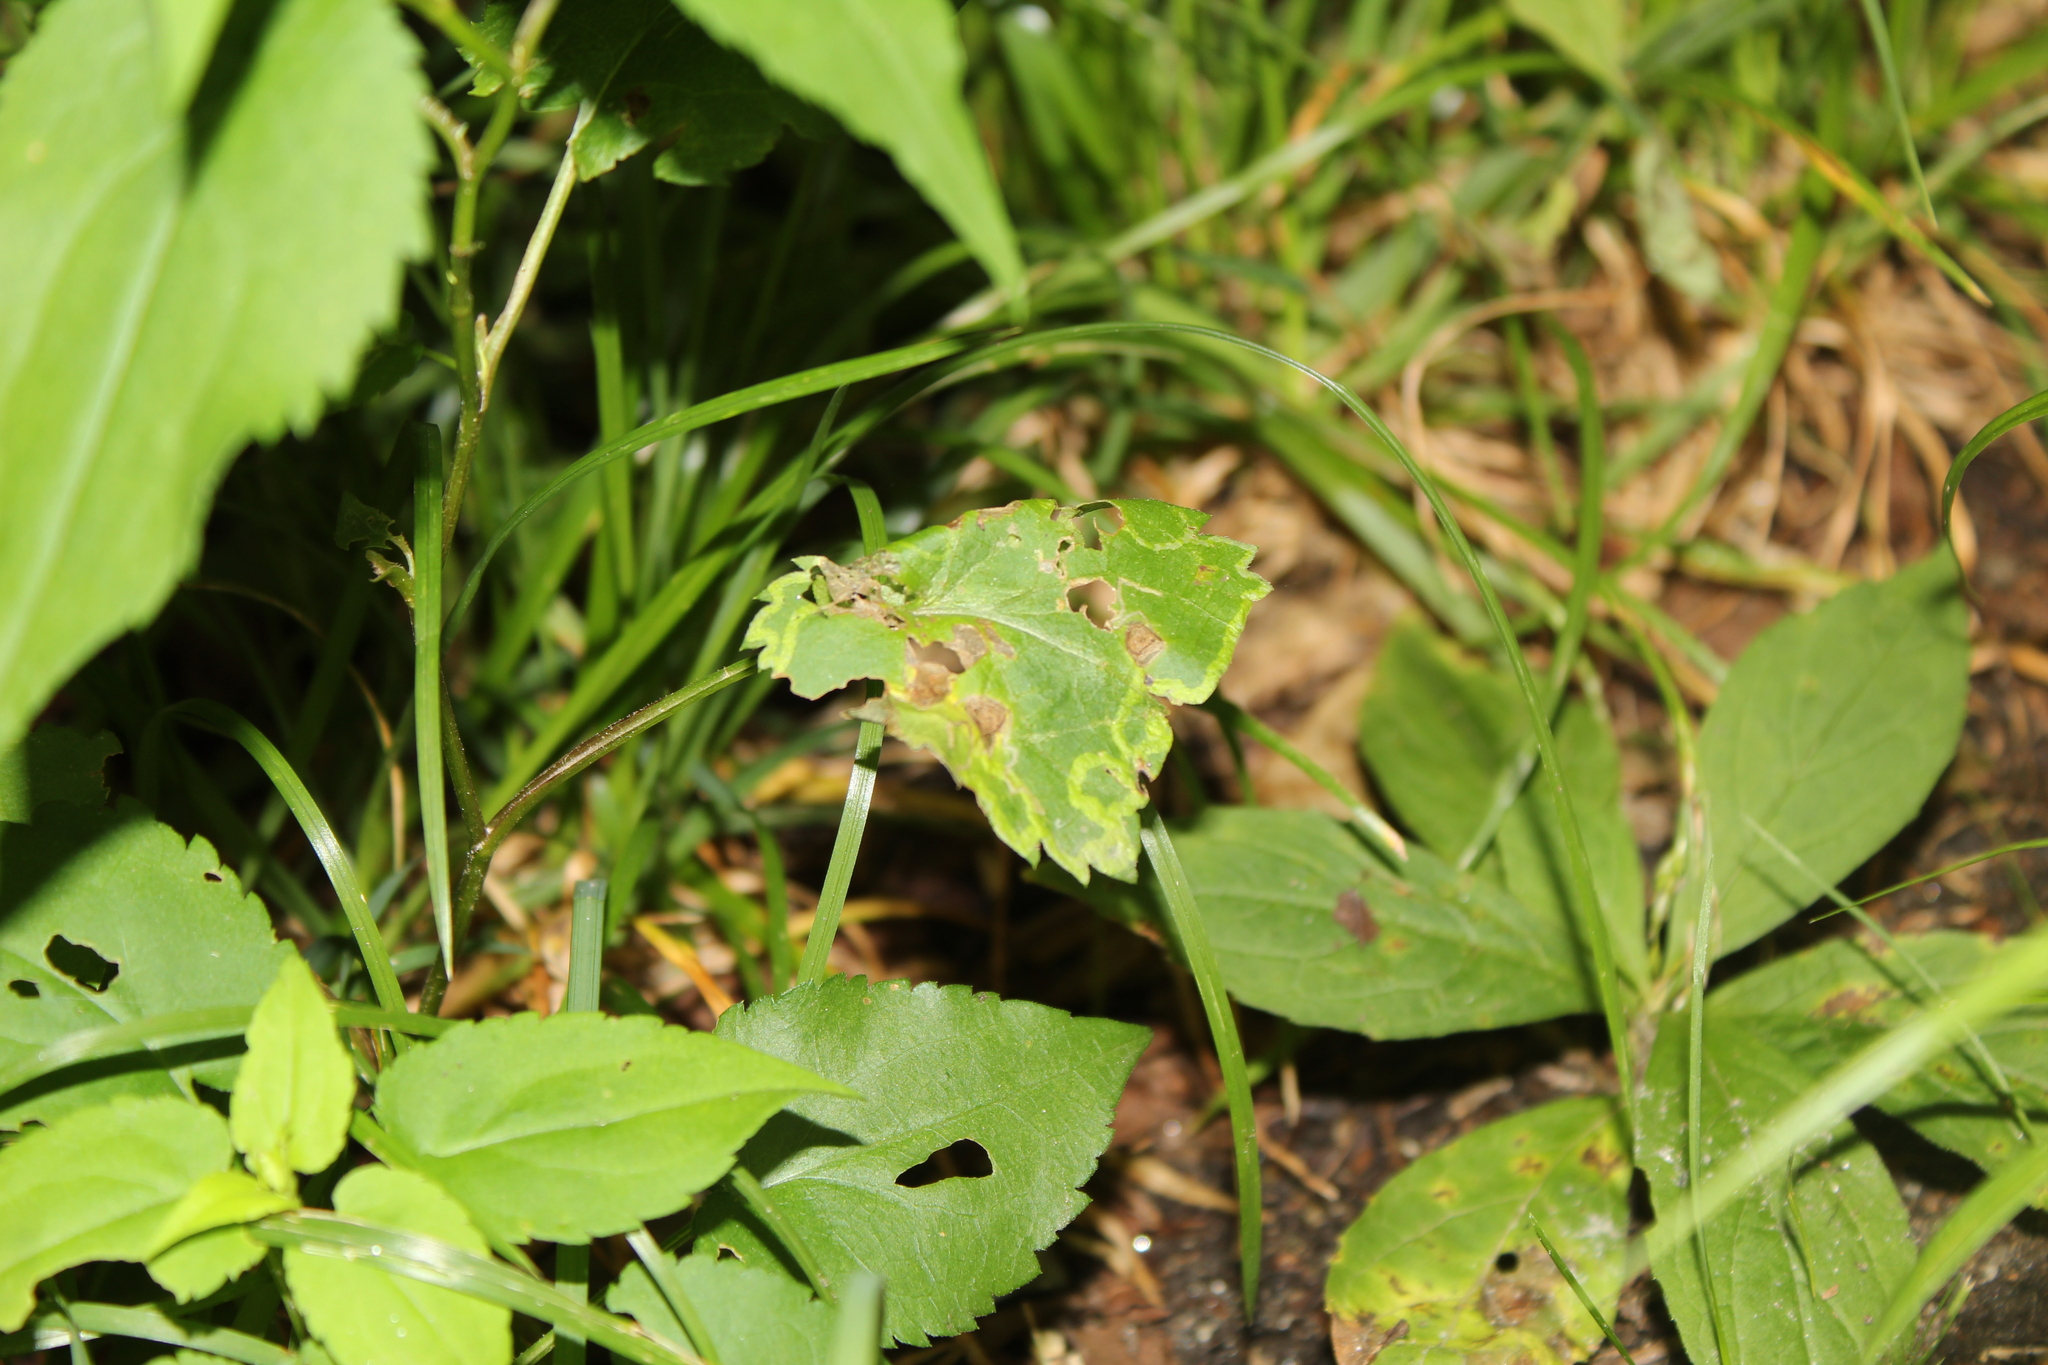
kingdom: Animalia
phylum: Arthropoda
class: Insecta
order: Diptera
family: Agromyzidae
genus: Ophiomyia
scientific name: Ophiomyia parda
